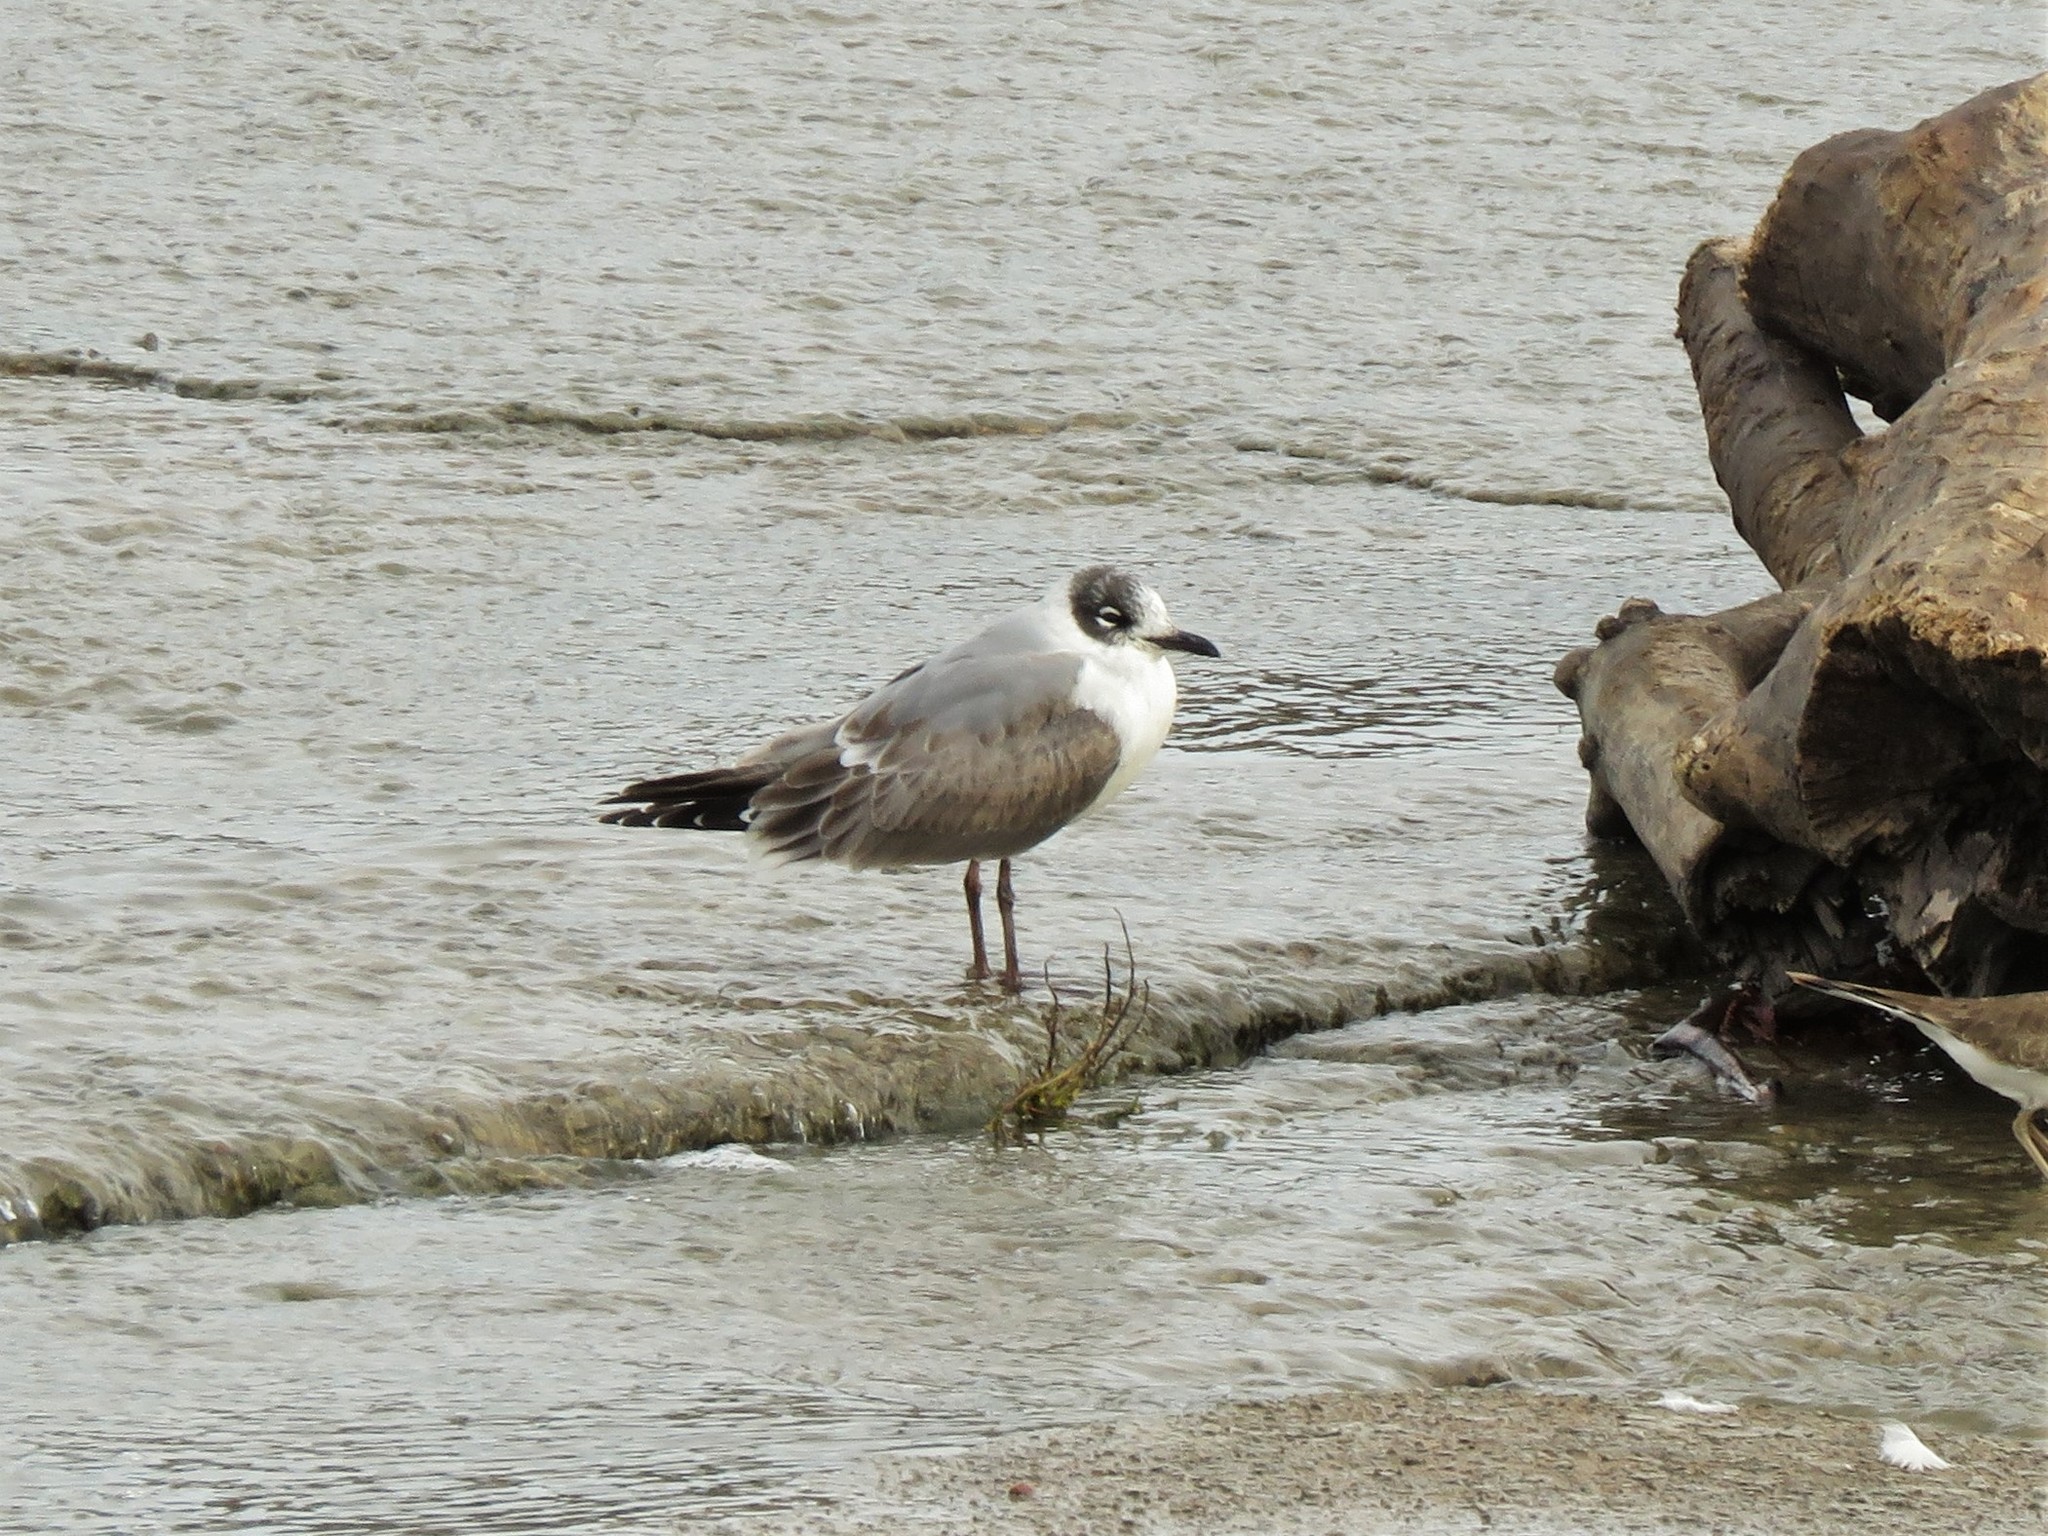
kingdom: Animalia
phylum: Chordata
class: Aves
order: Charadriiformes
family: Laridae
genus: Leucophaeus
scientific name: Leucophaeus pipixcan
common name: Franklin's gull
